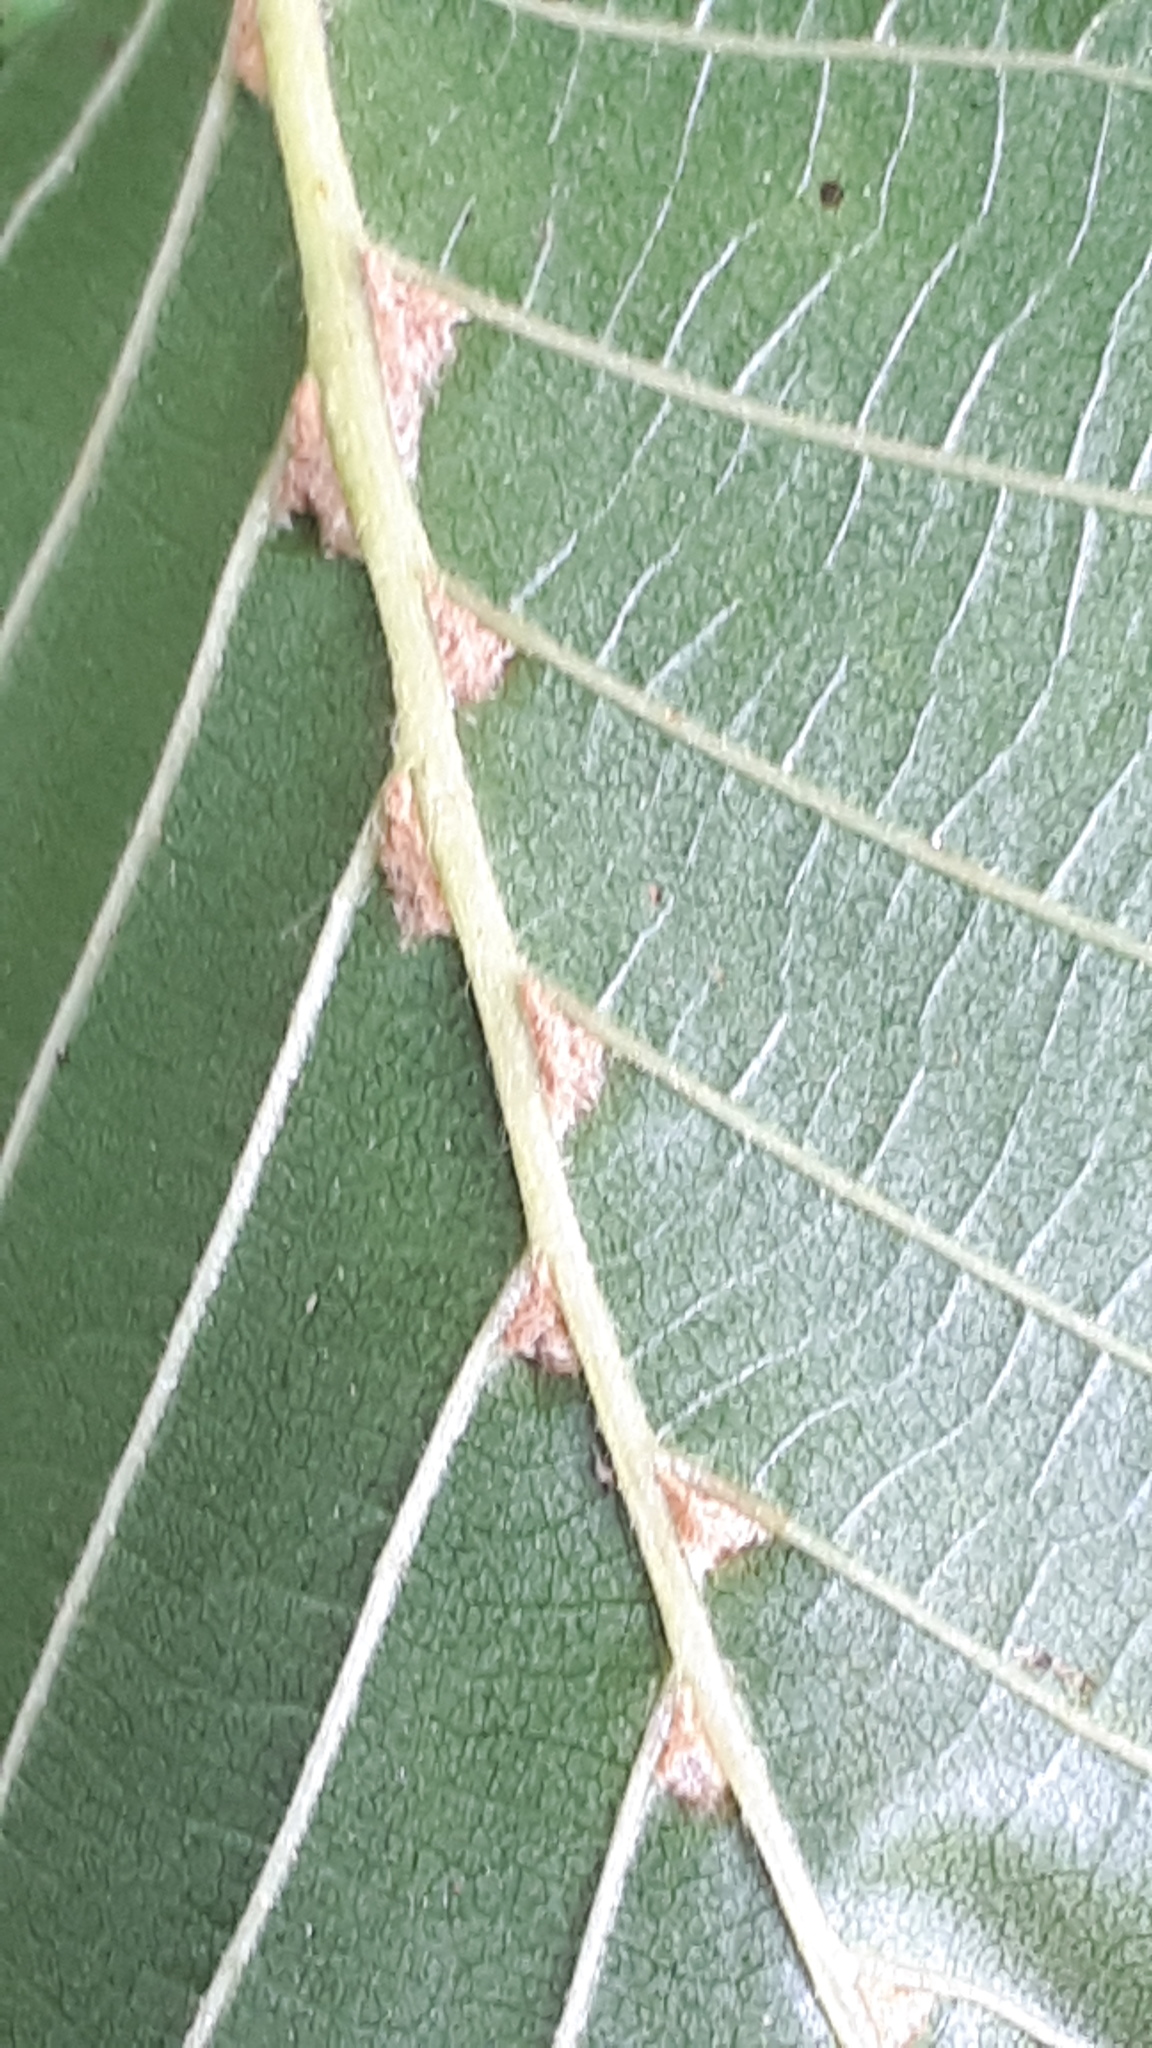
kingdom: Animalia
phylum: Arthropoda
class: Arachnida
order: Trombidiformes
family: Eriophyidae
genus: Eriophyes
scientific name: Eriophyes inangulis
